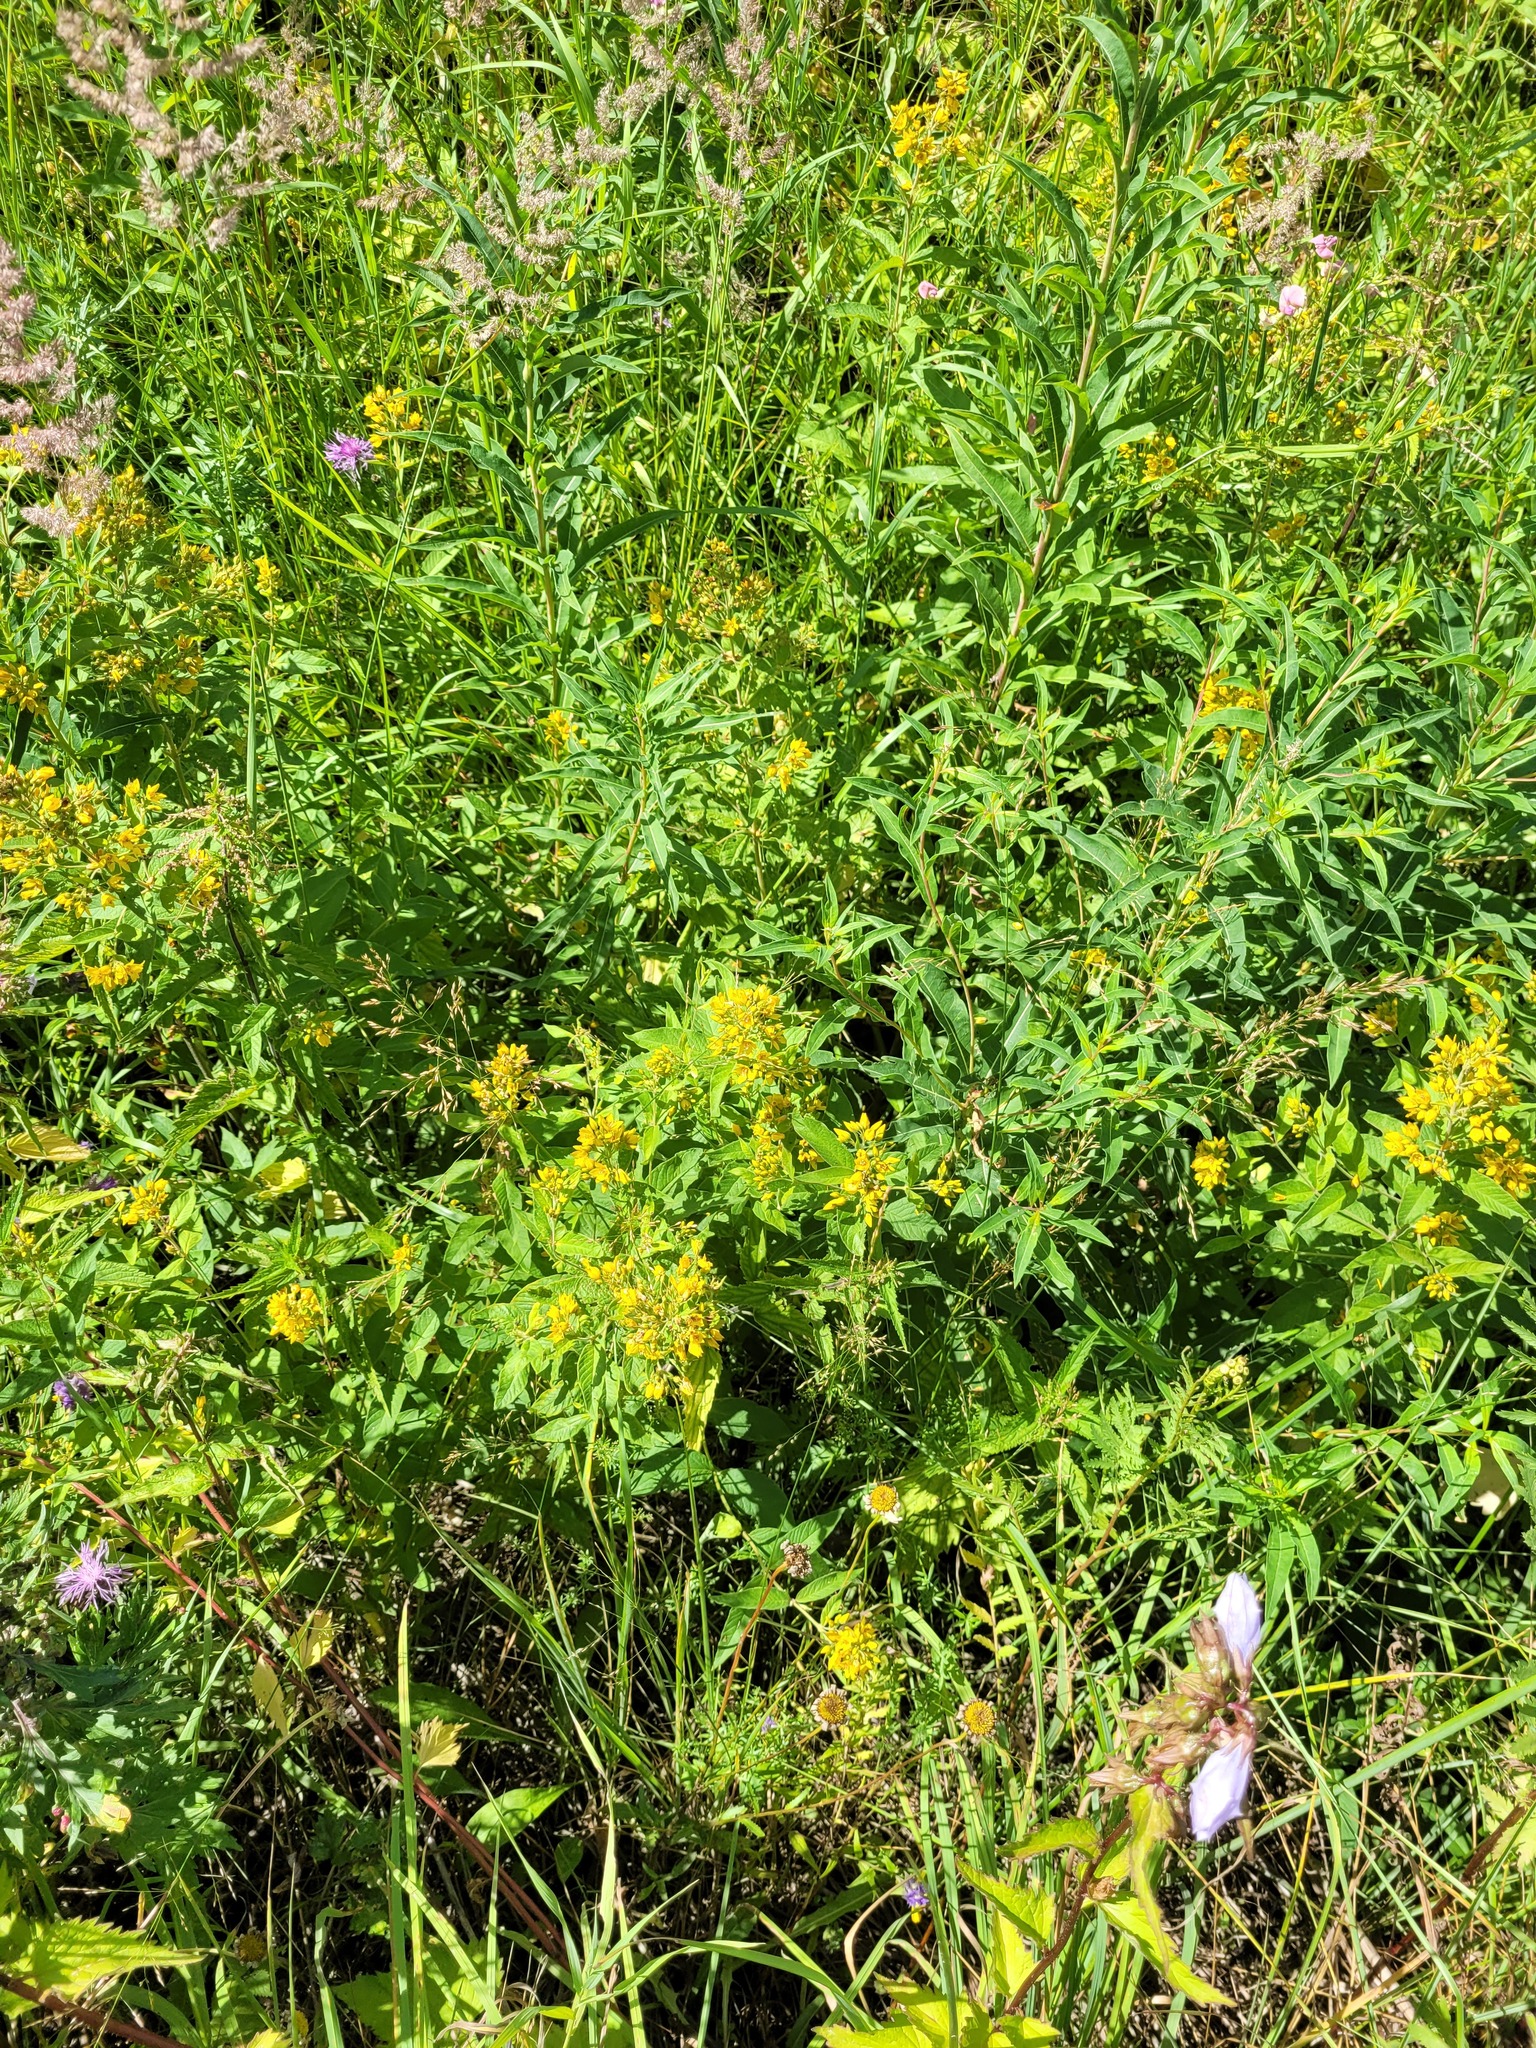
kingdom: Plantae
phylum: Tracheophyta
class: Magnoliopsida
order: Ericales
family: Primulaceae
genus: Lysimachia
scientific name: Lysimachia vulgaris
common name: Yellow loosestrife
